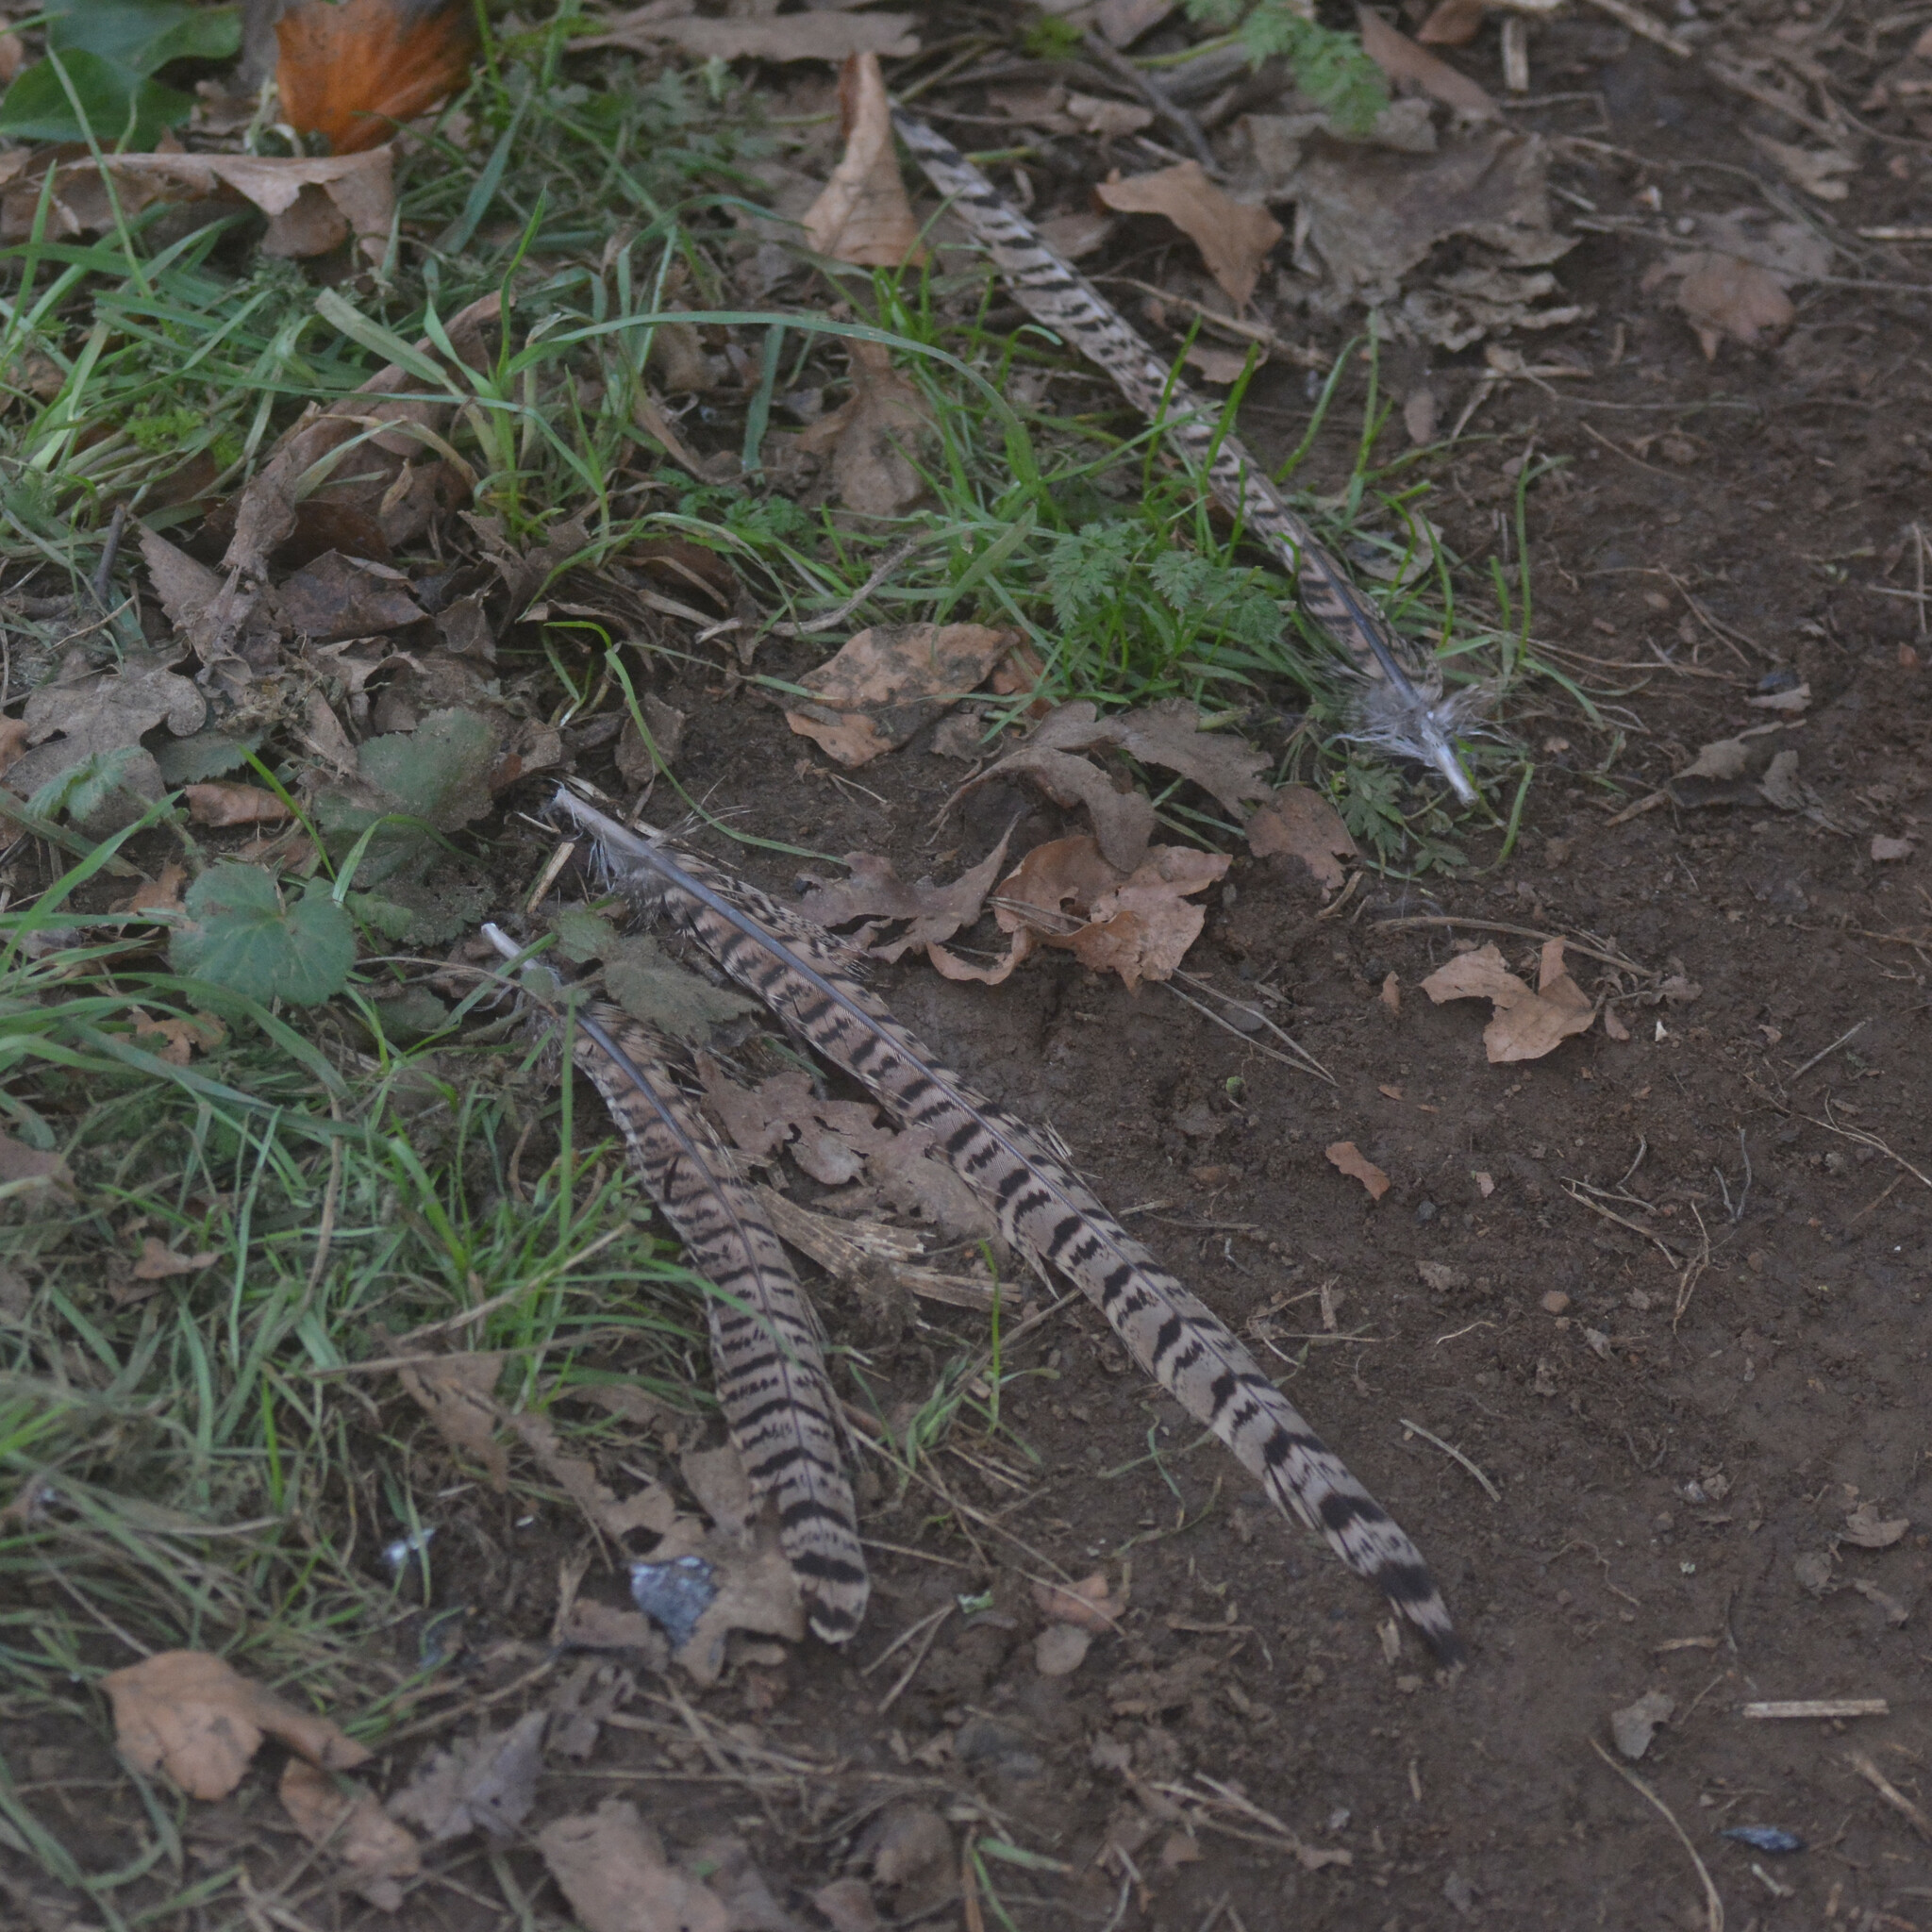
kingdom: Animalia
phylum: Chordata
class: Aves
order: Galliformes
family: Phasianidae
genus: Phasianus
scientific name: Phasianus colchicus
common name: Common pheasant
